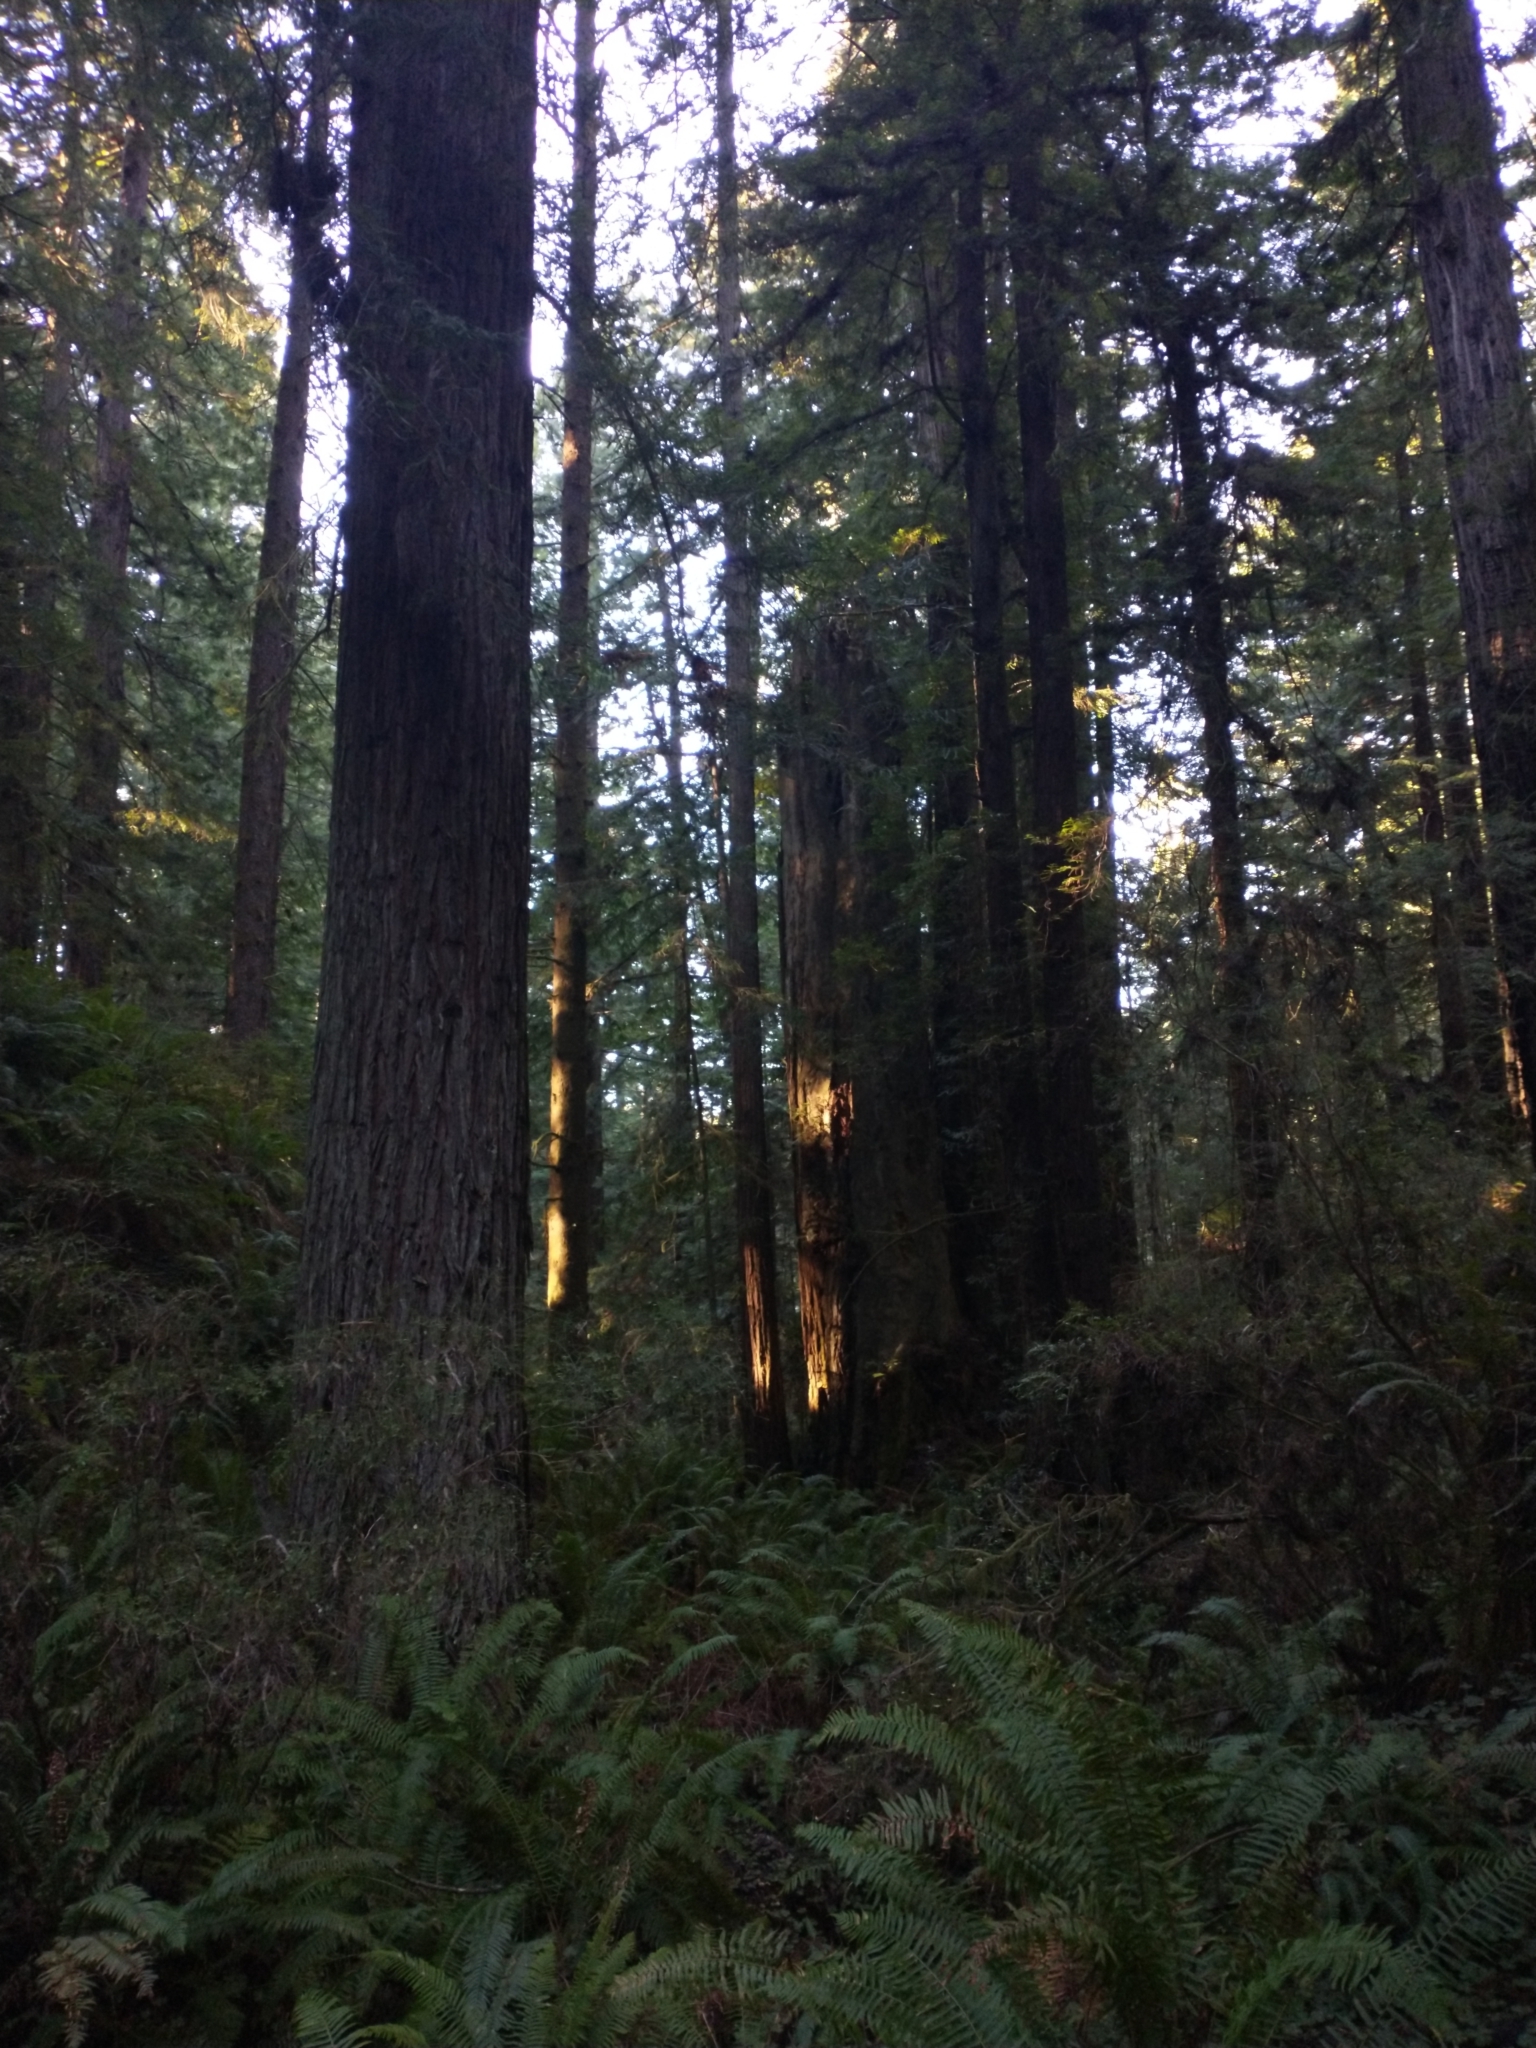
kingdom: Plantae
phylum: Tracheophyta
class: Polypodiopsida
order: Polypodiales
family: Dryopteridaceae
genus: Polystichum
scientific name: Polystichum munitum
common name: Western sword-fern
